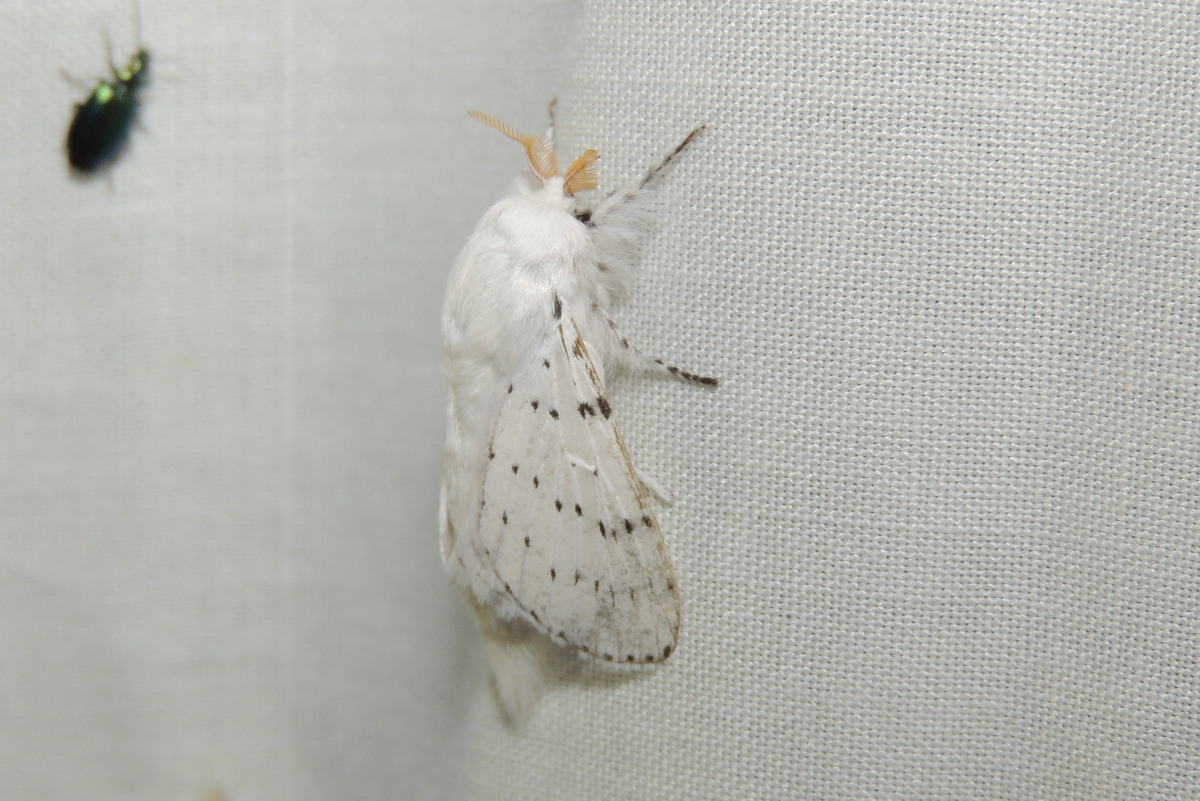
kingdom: Animalia
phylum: Arthropoda
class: Insecta
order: Lepidoptera
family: Lasiocampidae
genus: Artace
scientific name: Artace cribrarius
